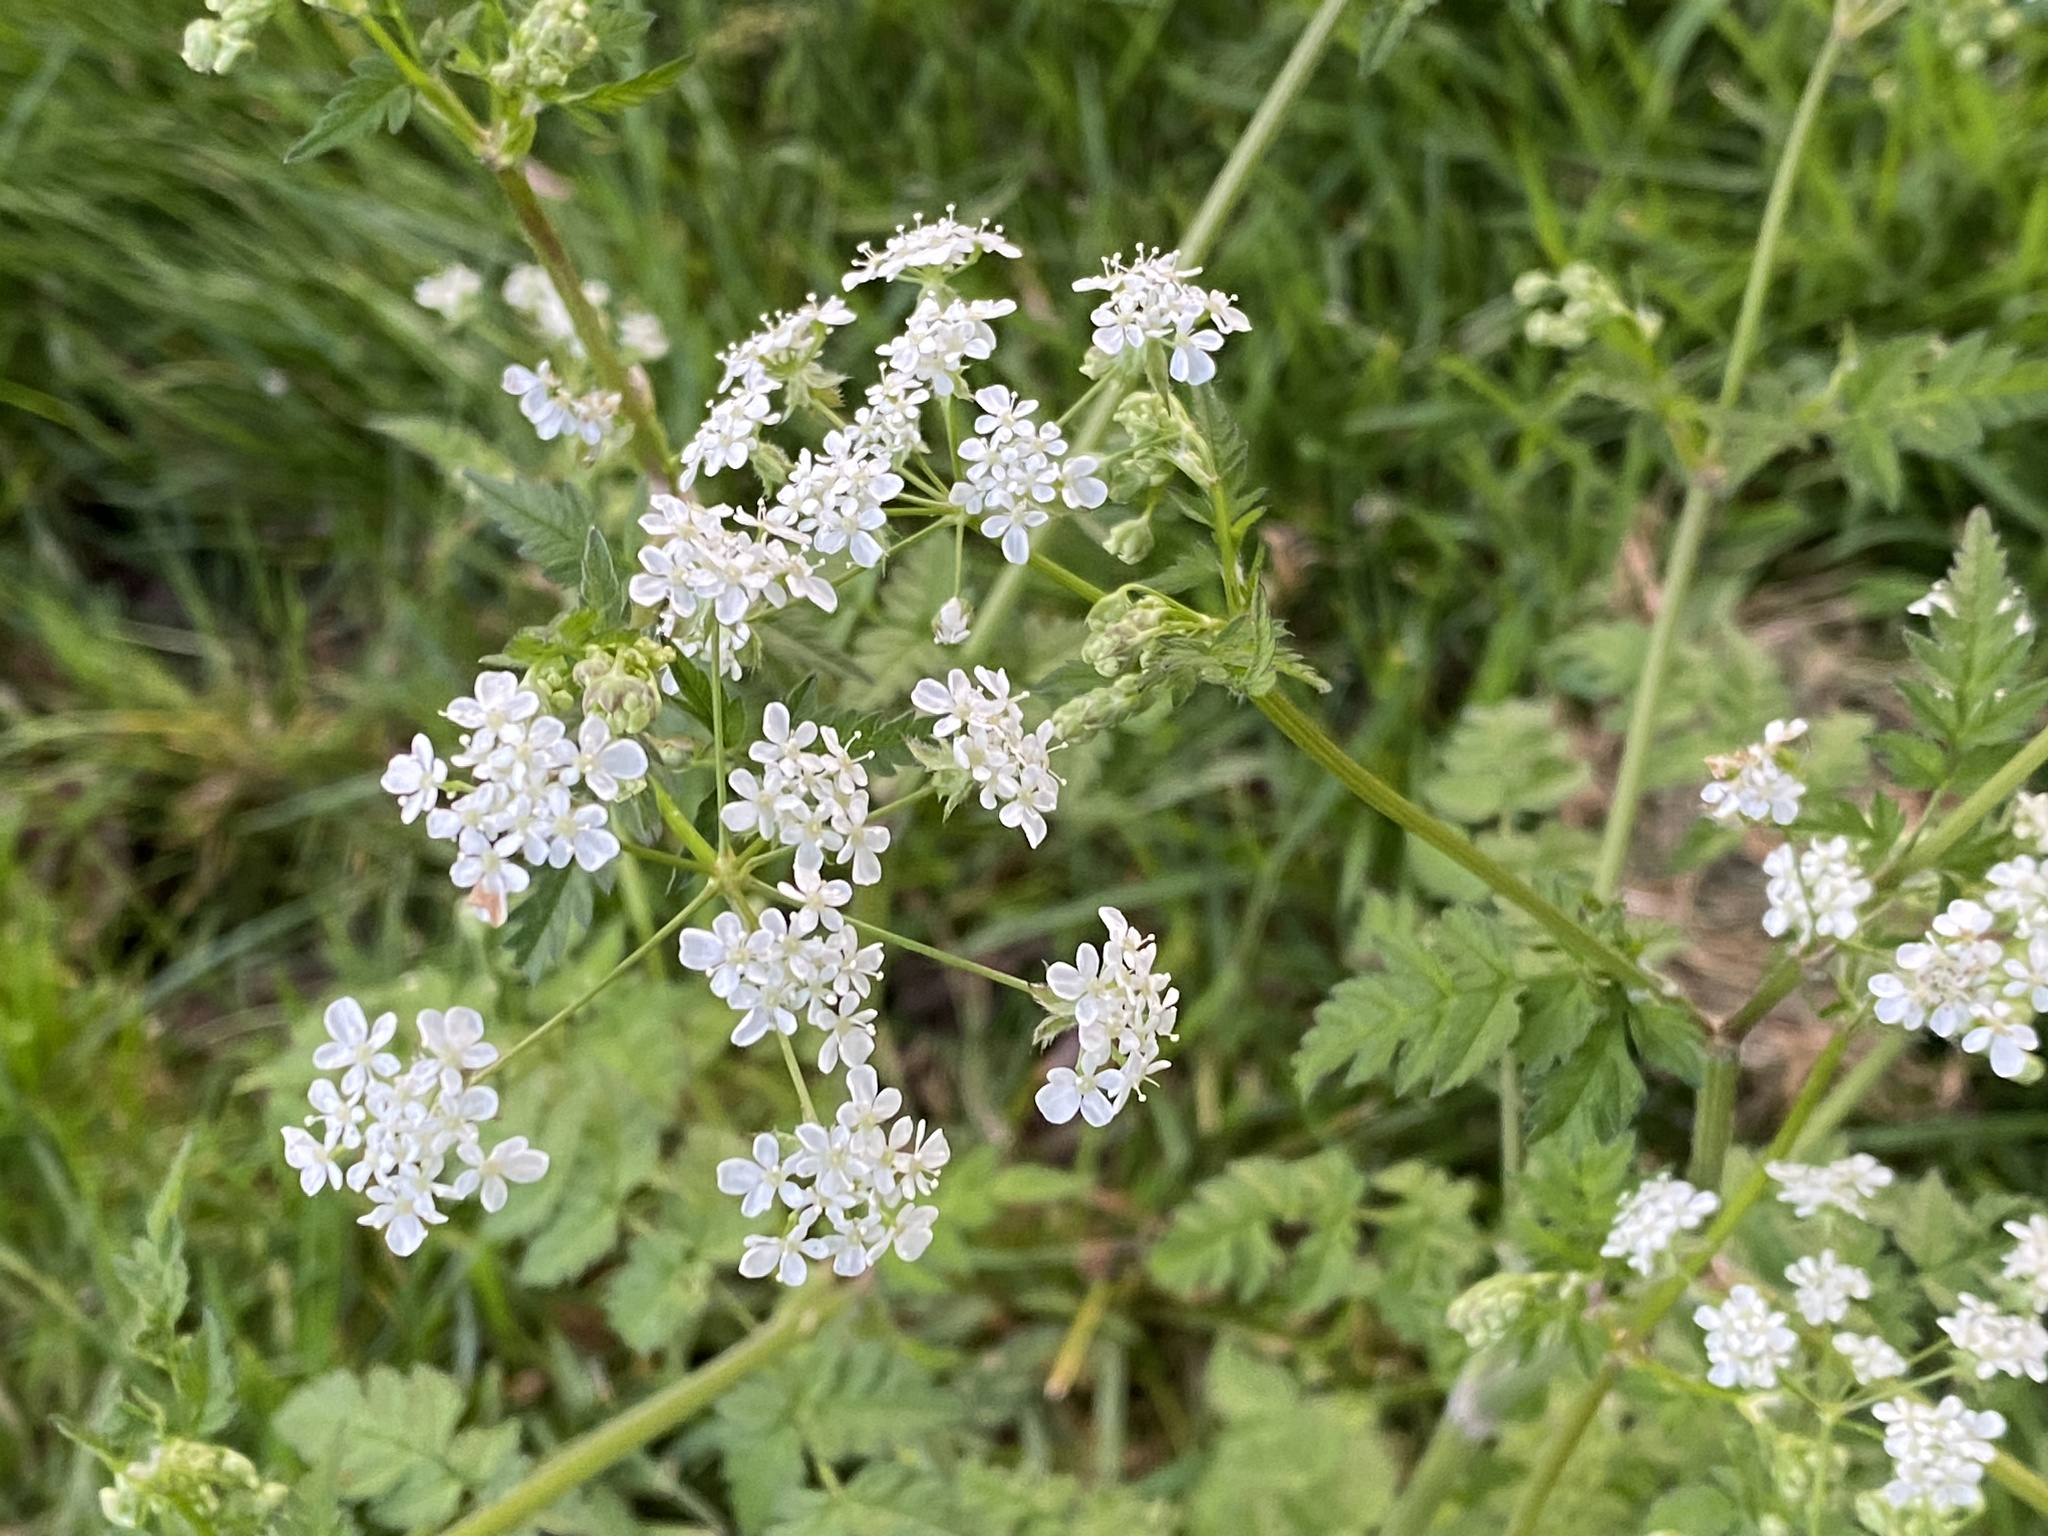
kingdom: Plantae
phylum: Tracheophyta
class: Magnoliopsida
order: Apiales
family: Apiaceae
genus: Anthriscus
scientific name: Anthriscus sylvestris
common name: Cow parsley
